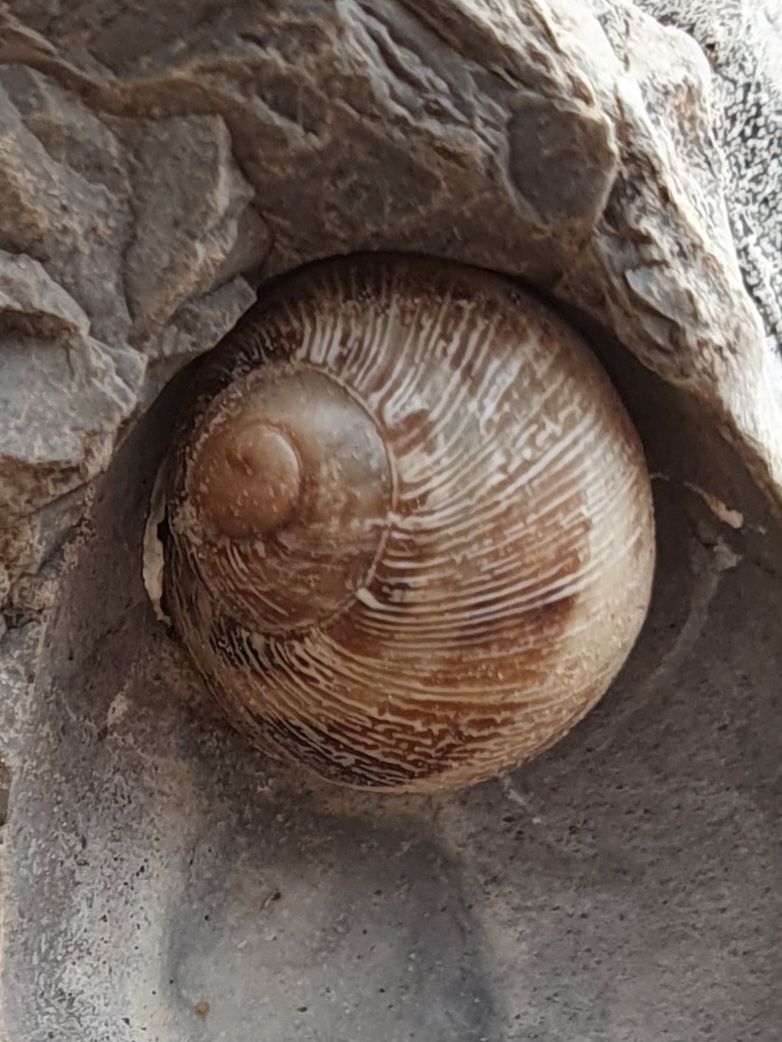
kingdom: Animalia
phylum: Mollusca
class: Gastropoda
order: Stylommatophora
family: Helicidae
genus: Cornu
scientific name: Cornu aspersum
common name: Brown garden snail
